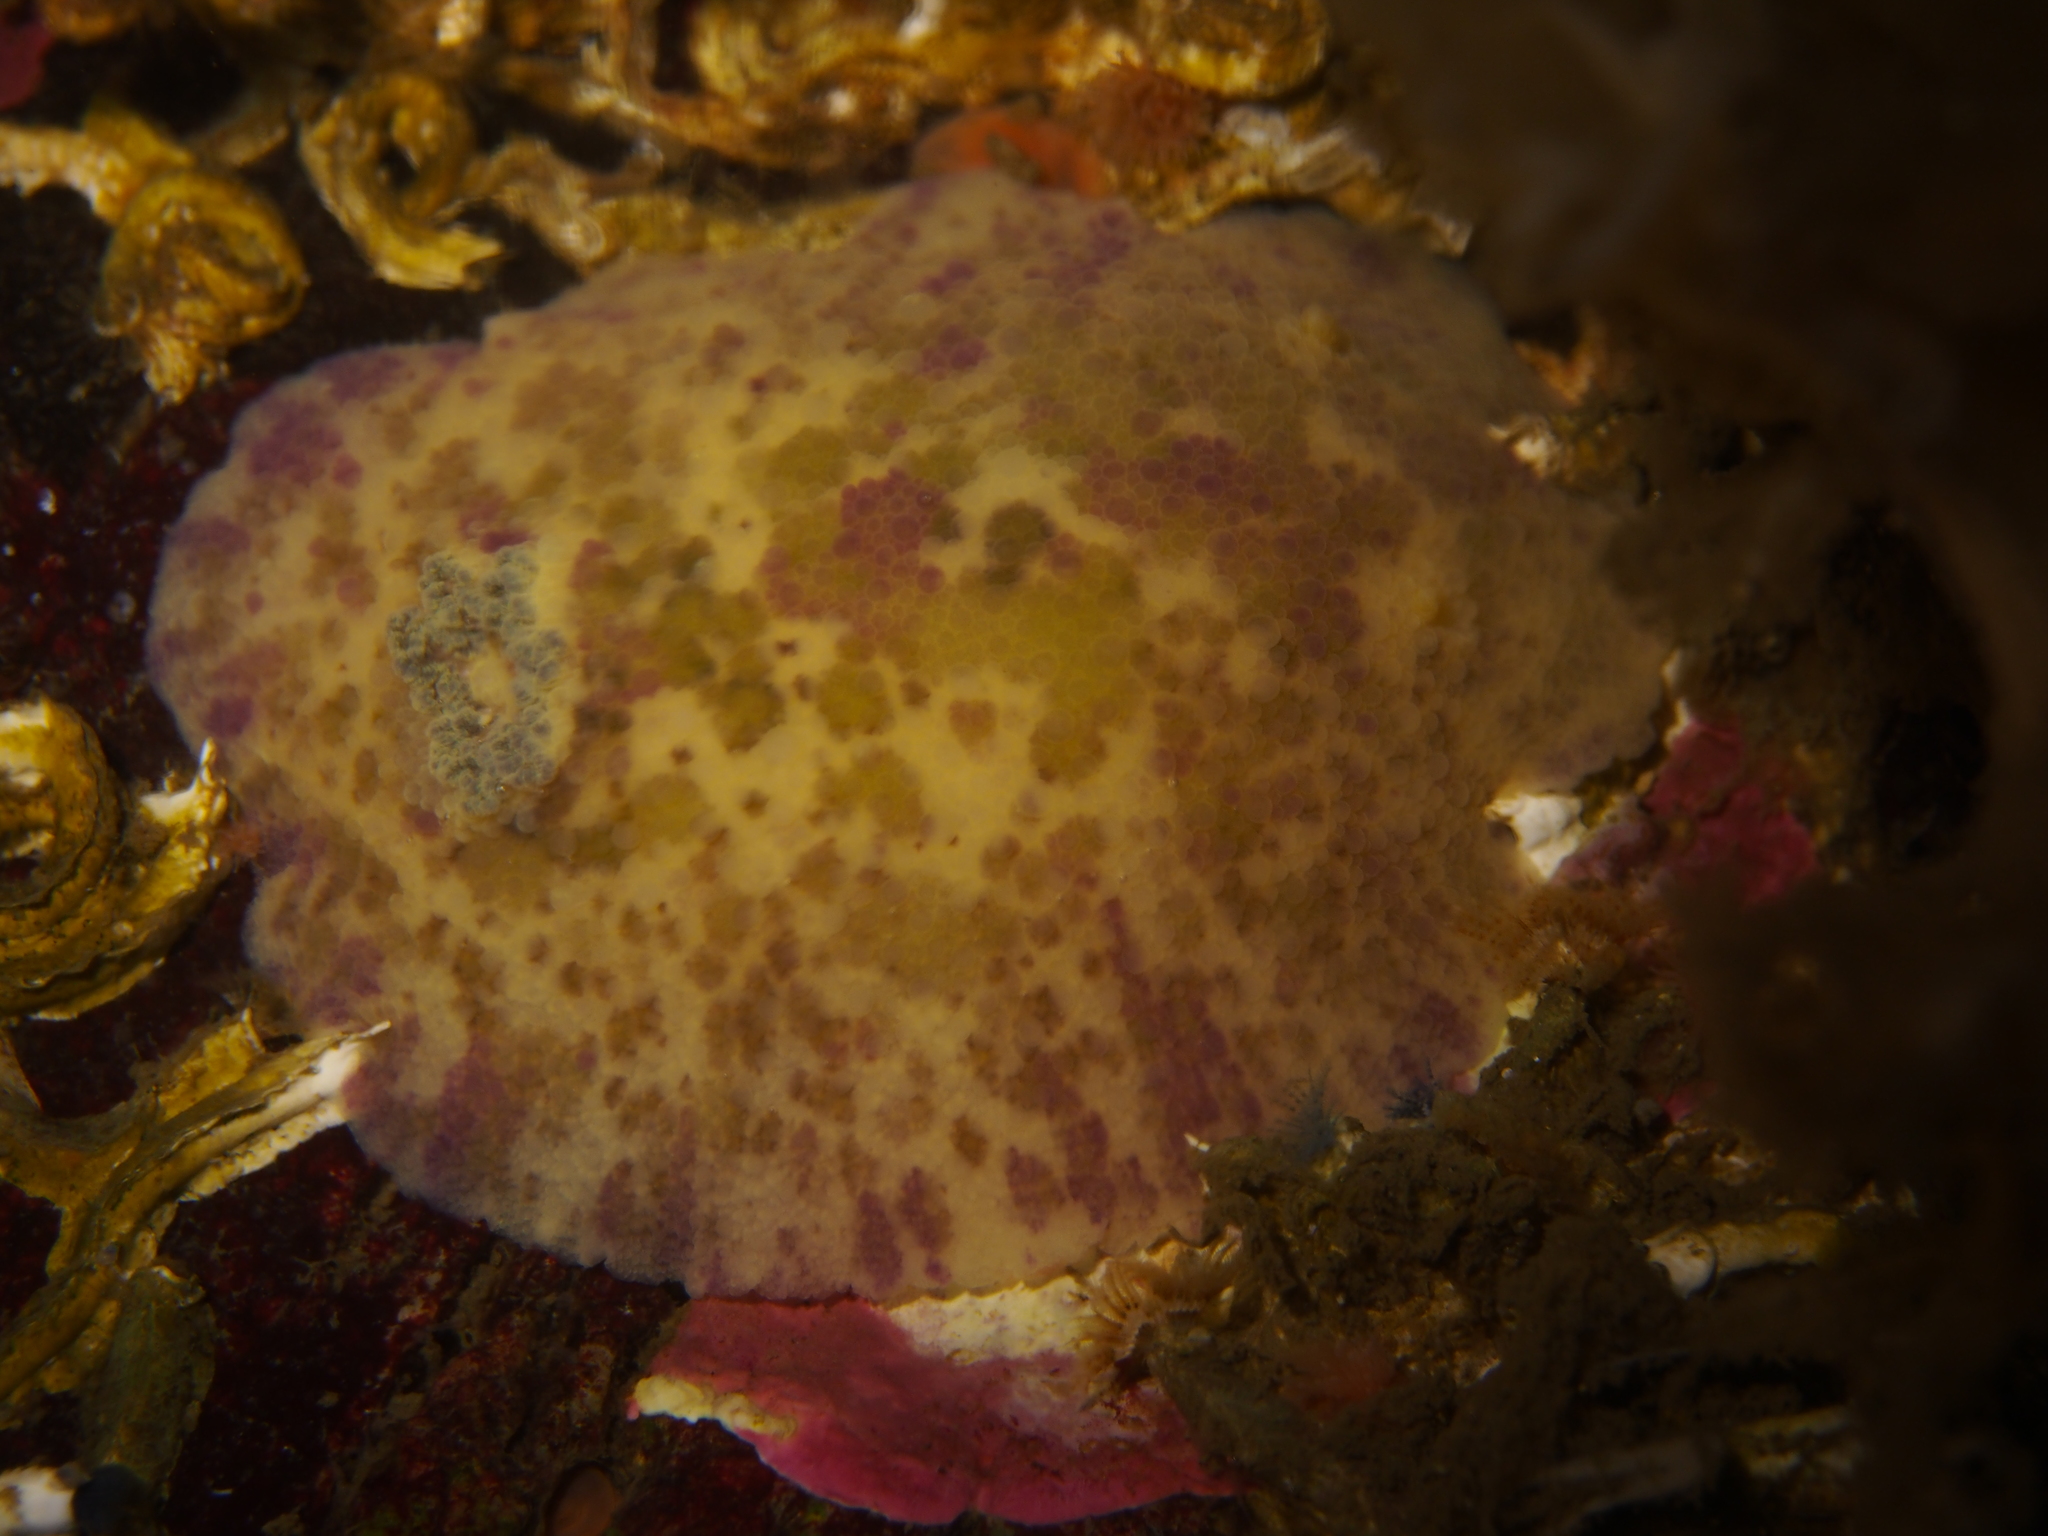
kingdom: Animalia
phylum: Mollusca
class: Gastropoda
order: Nudibranchia
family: Dorididae
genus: Doris
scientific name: Doris pseudoargus
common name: Sea lemon
